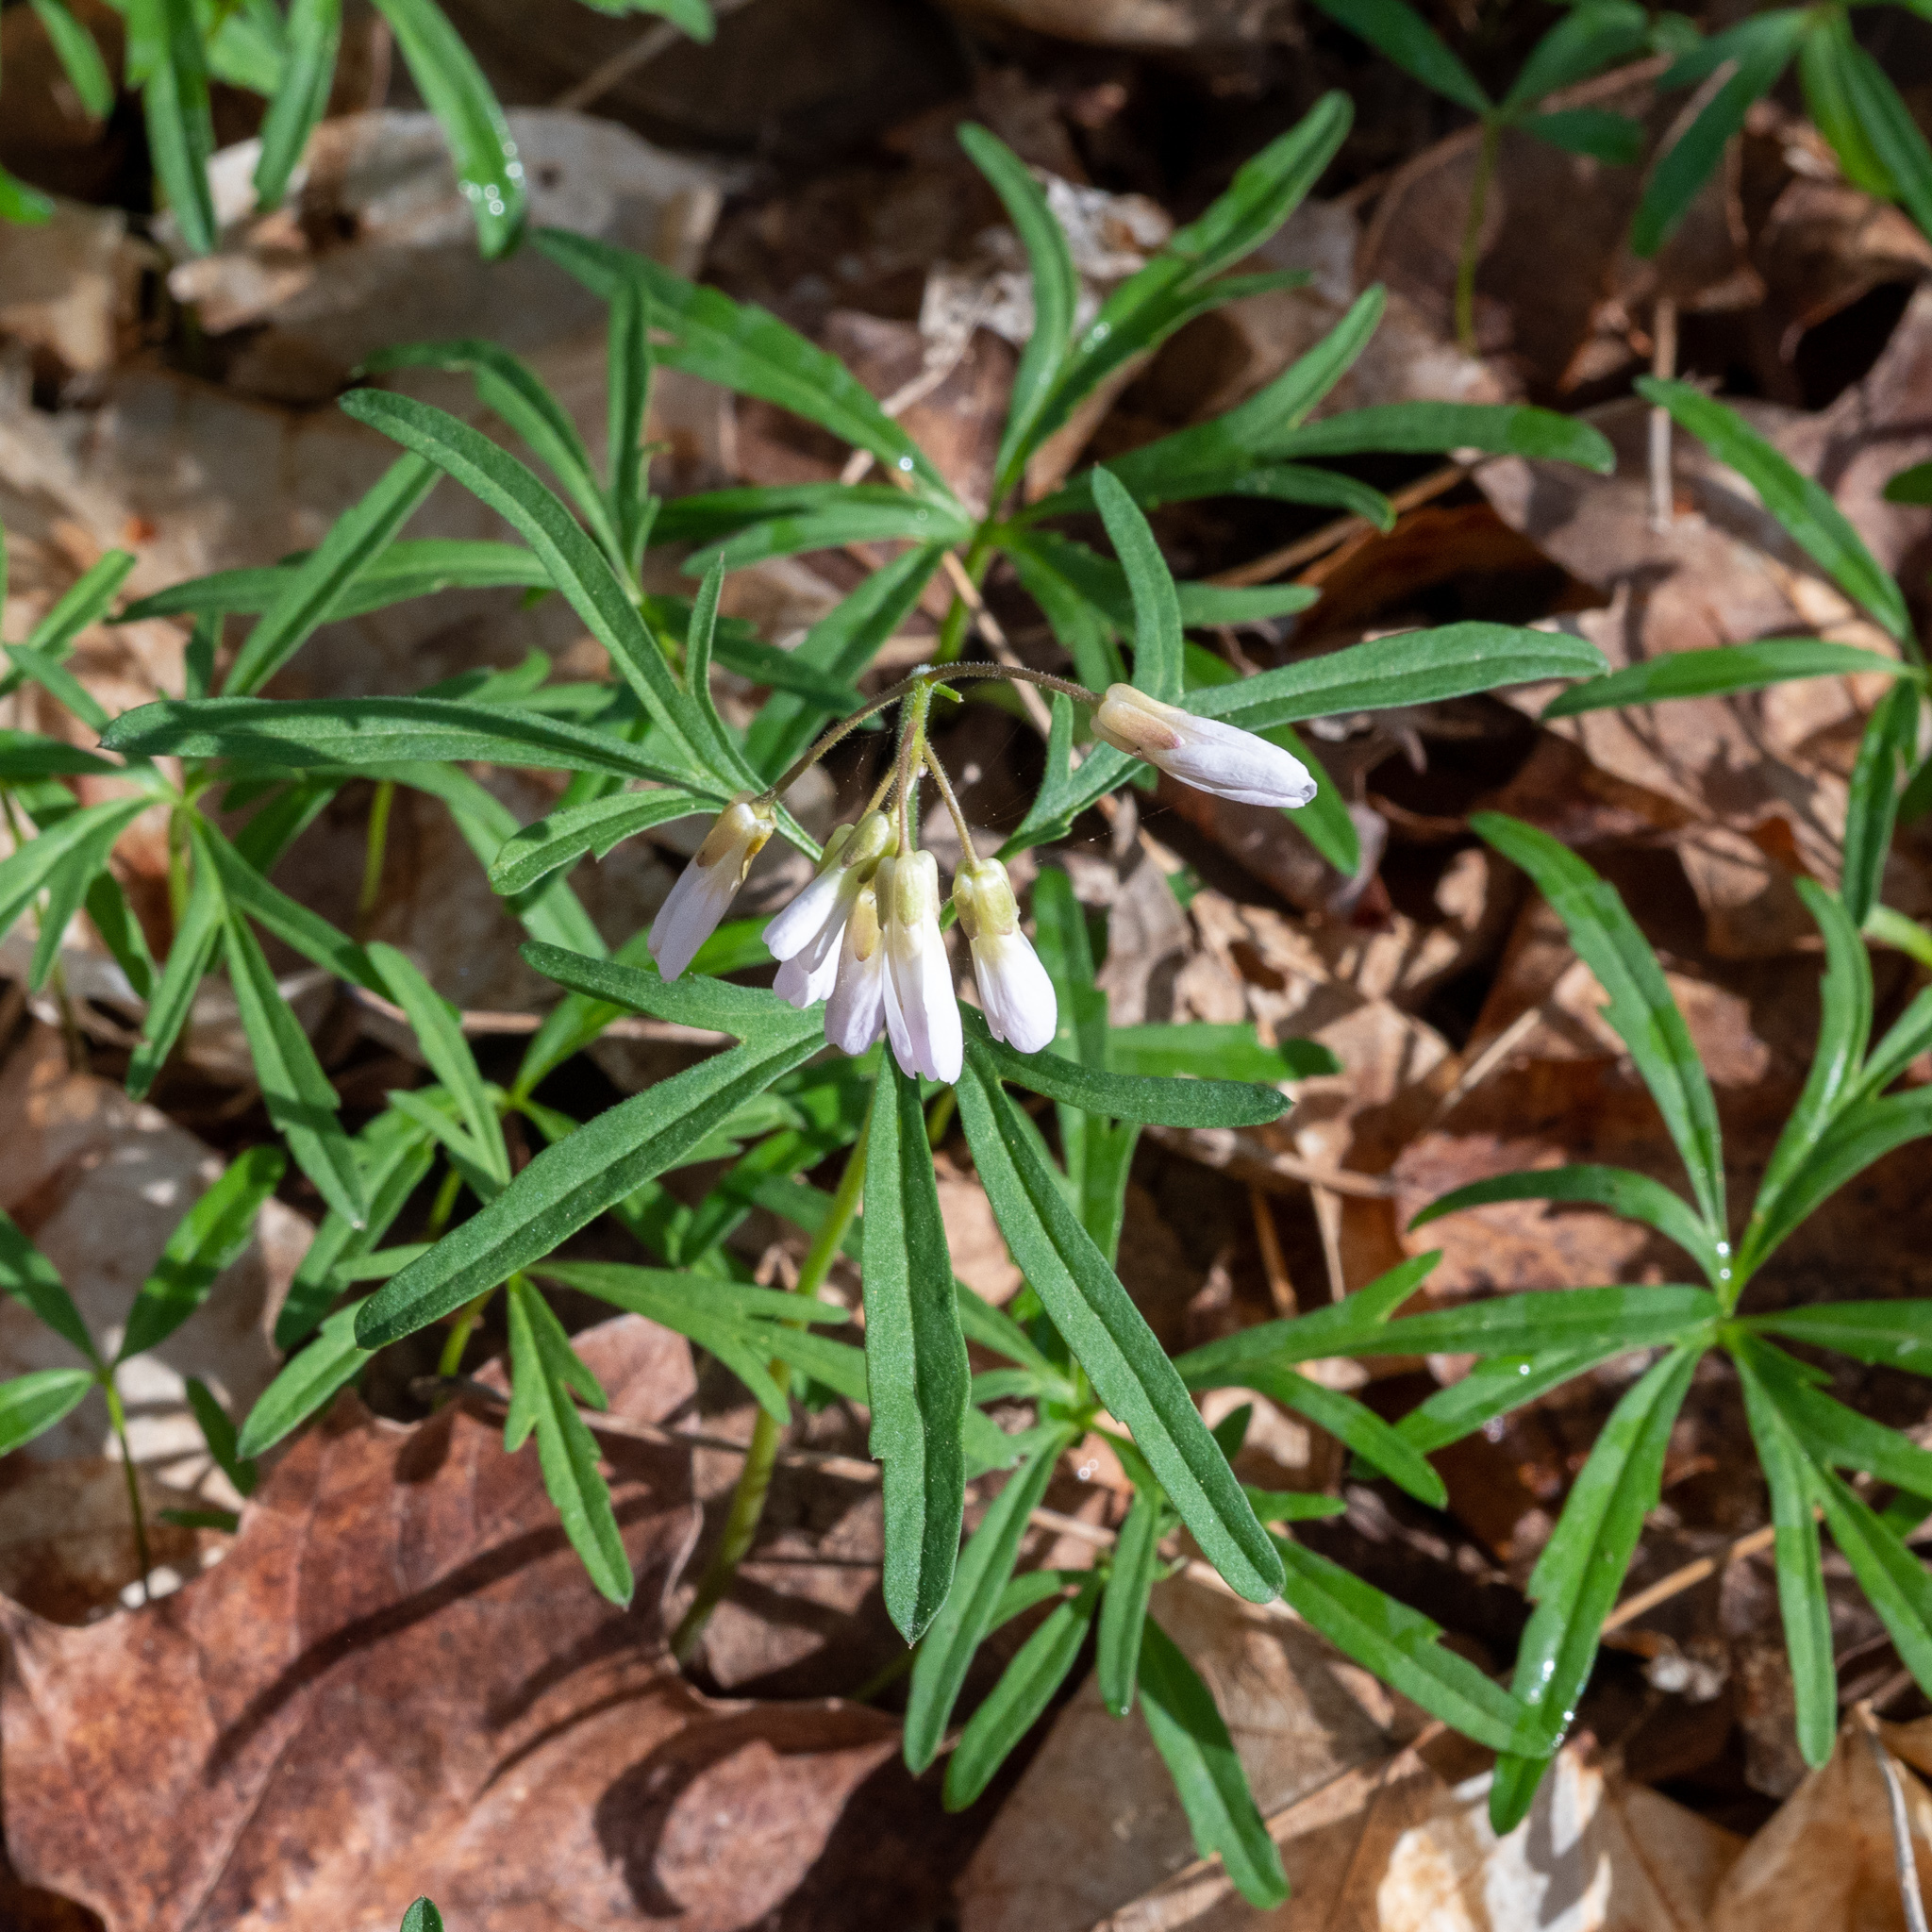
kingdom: Plantae
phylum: Tracheophyta
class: Magnoliopsida
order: Brassicales
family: Brassicaceae
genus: Cardamine
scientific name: Cardamine concatenata
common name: Cut-leaf toothcup
